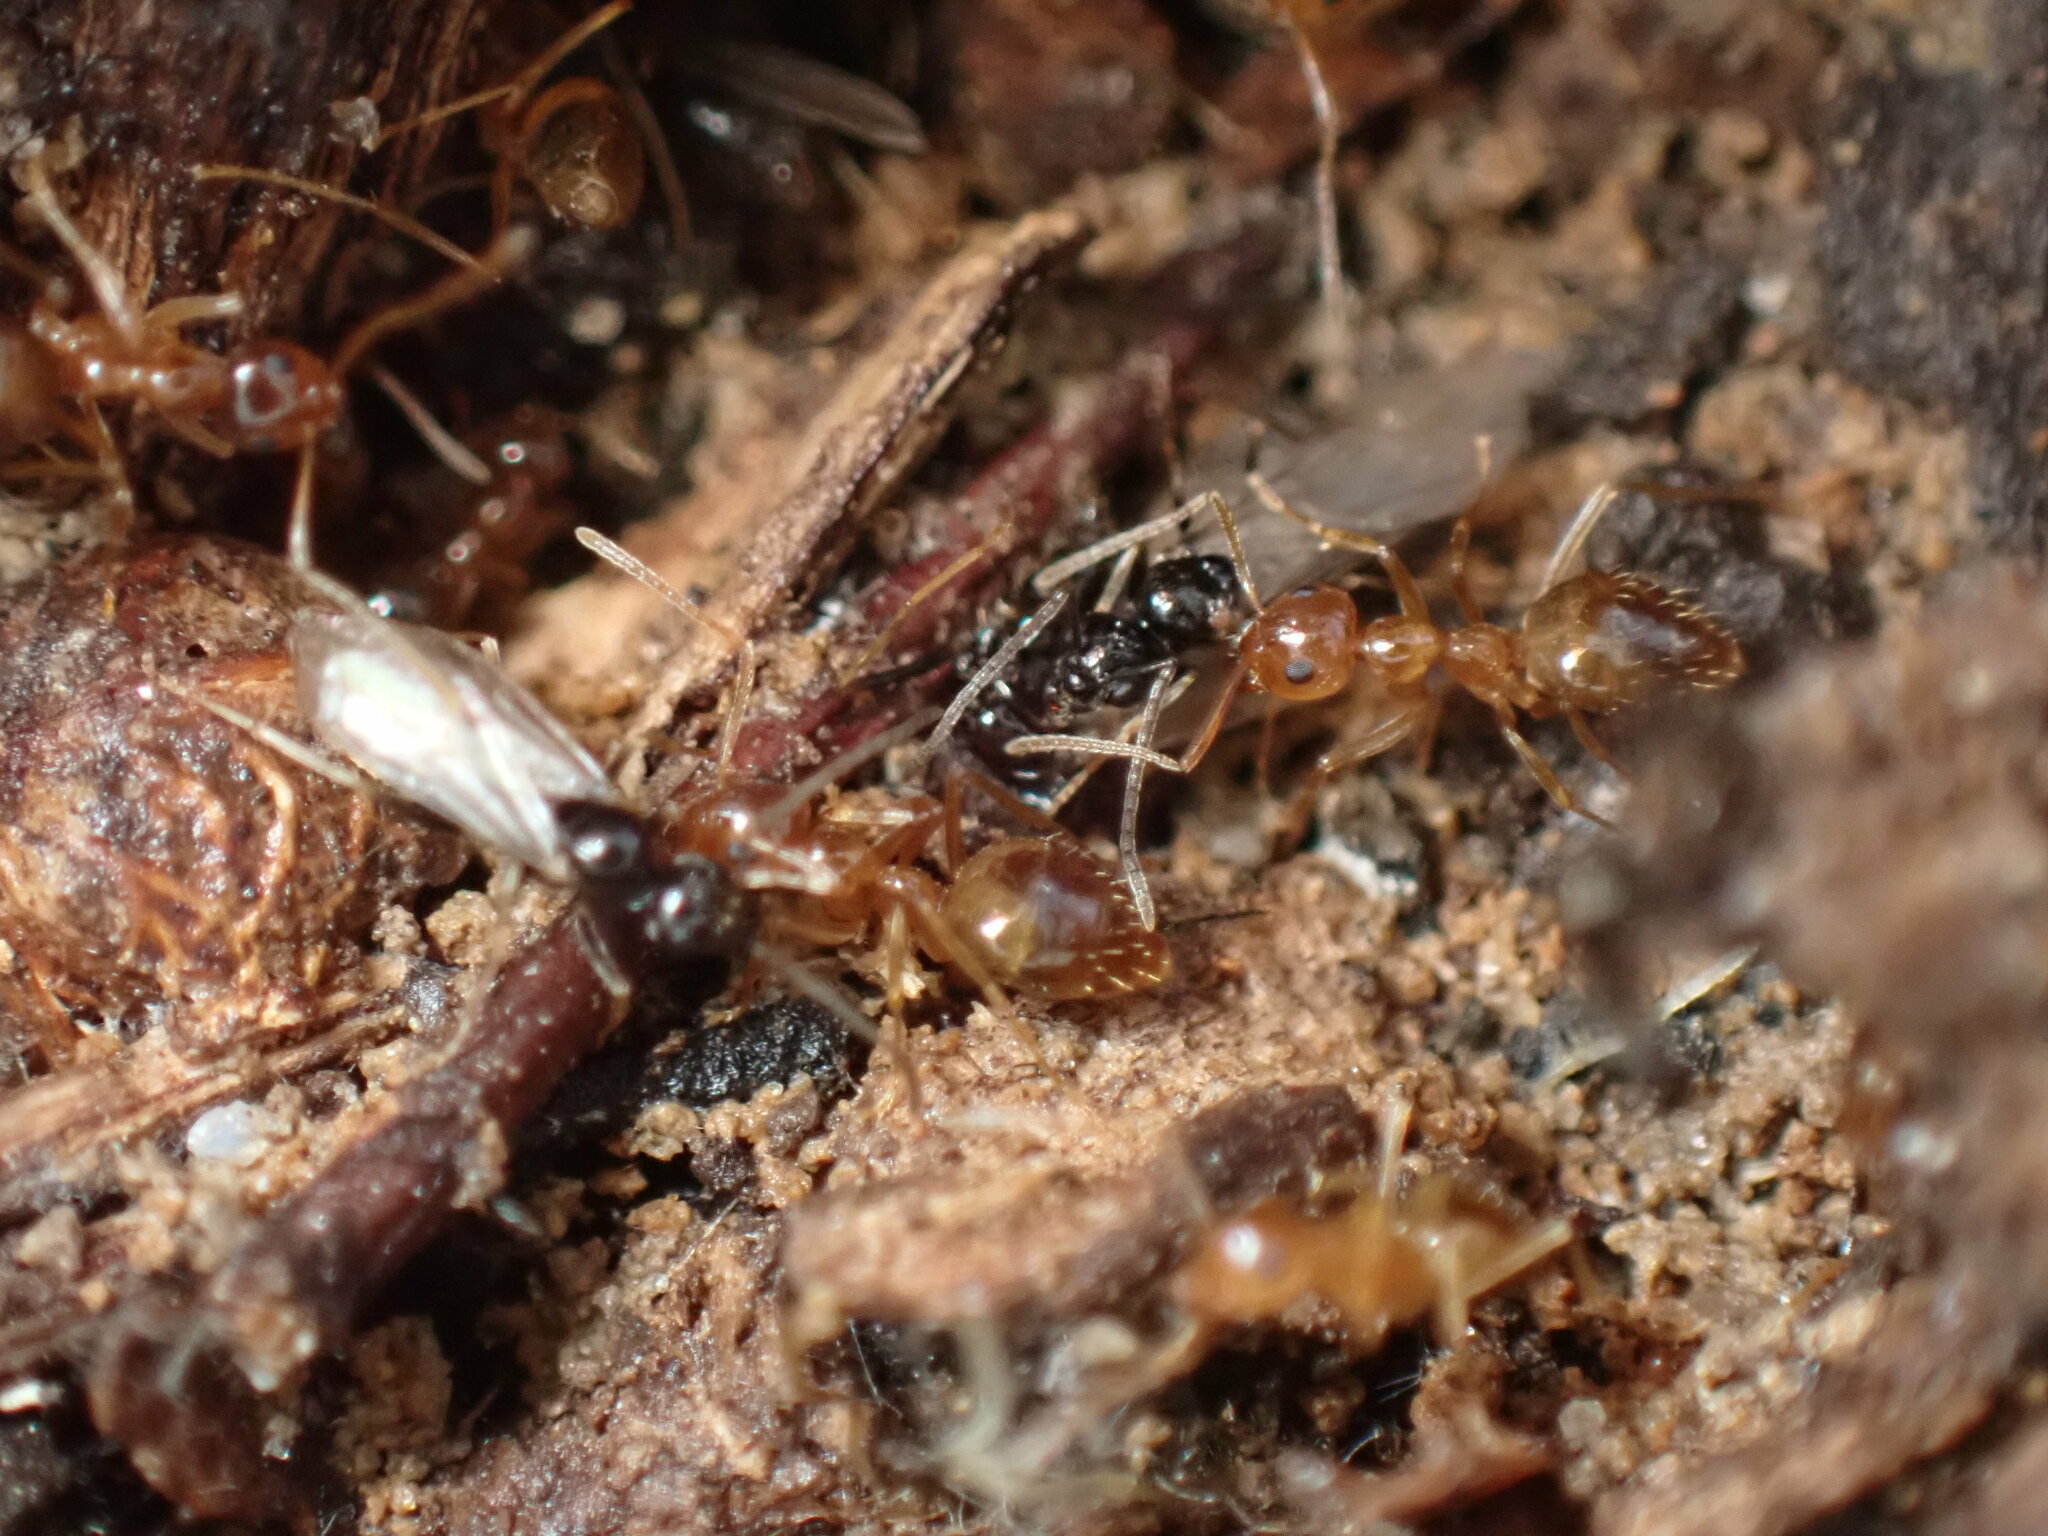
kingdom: Animalia
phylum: Arthropoda
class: Insecta
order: Hymenoptera
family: Formicidae
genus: Prenolepis
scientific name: Prenolepis imparis
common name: Small honey ant
